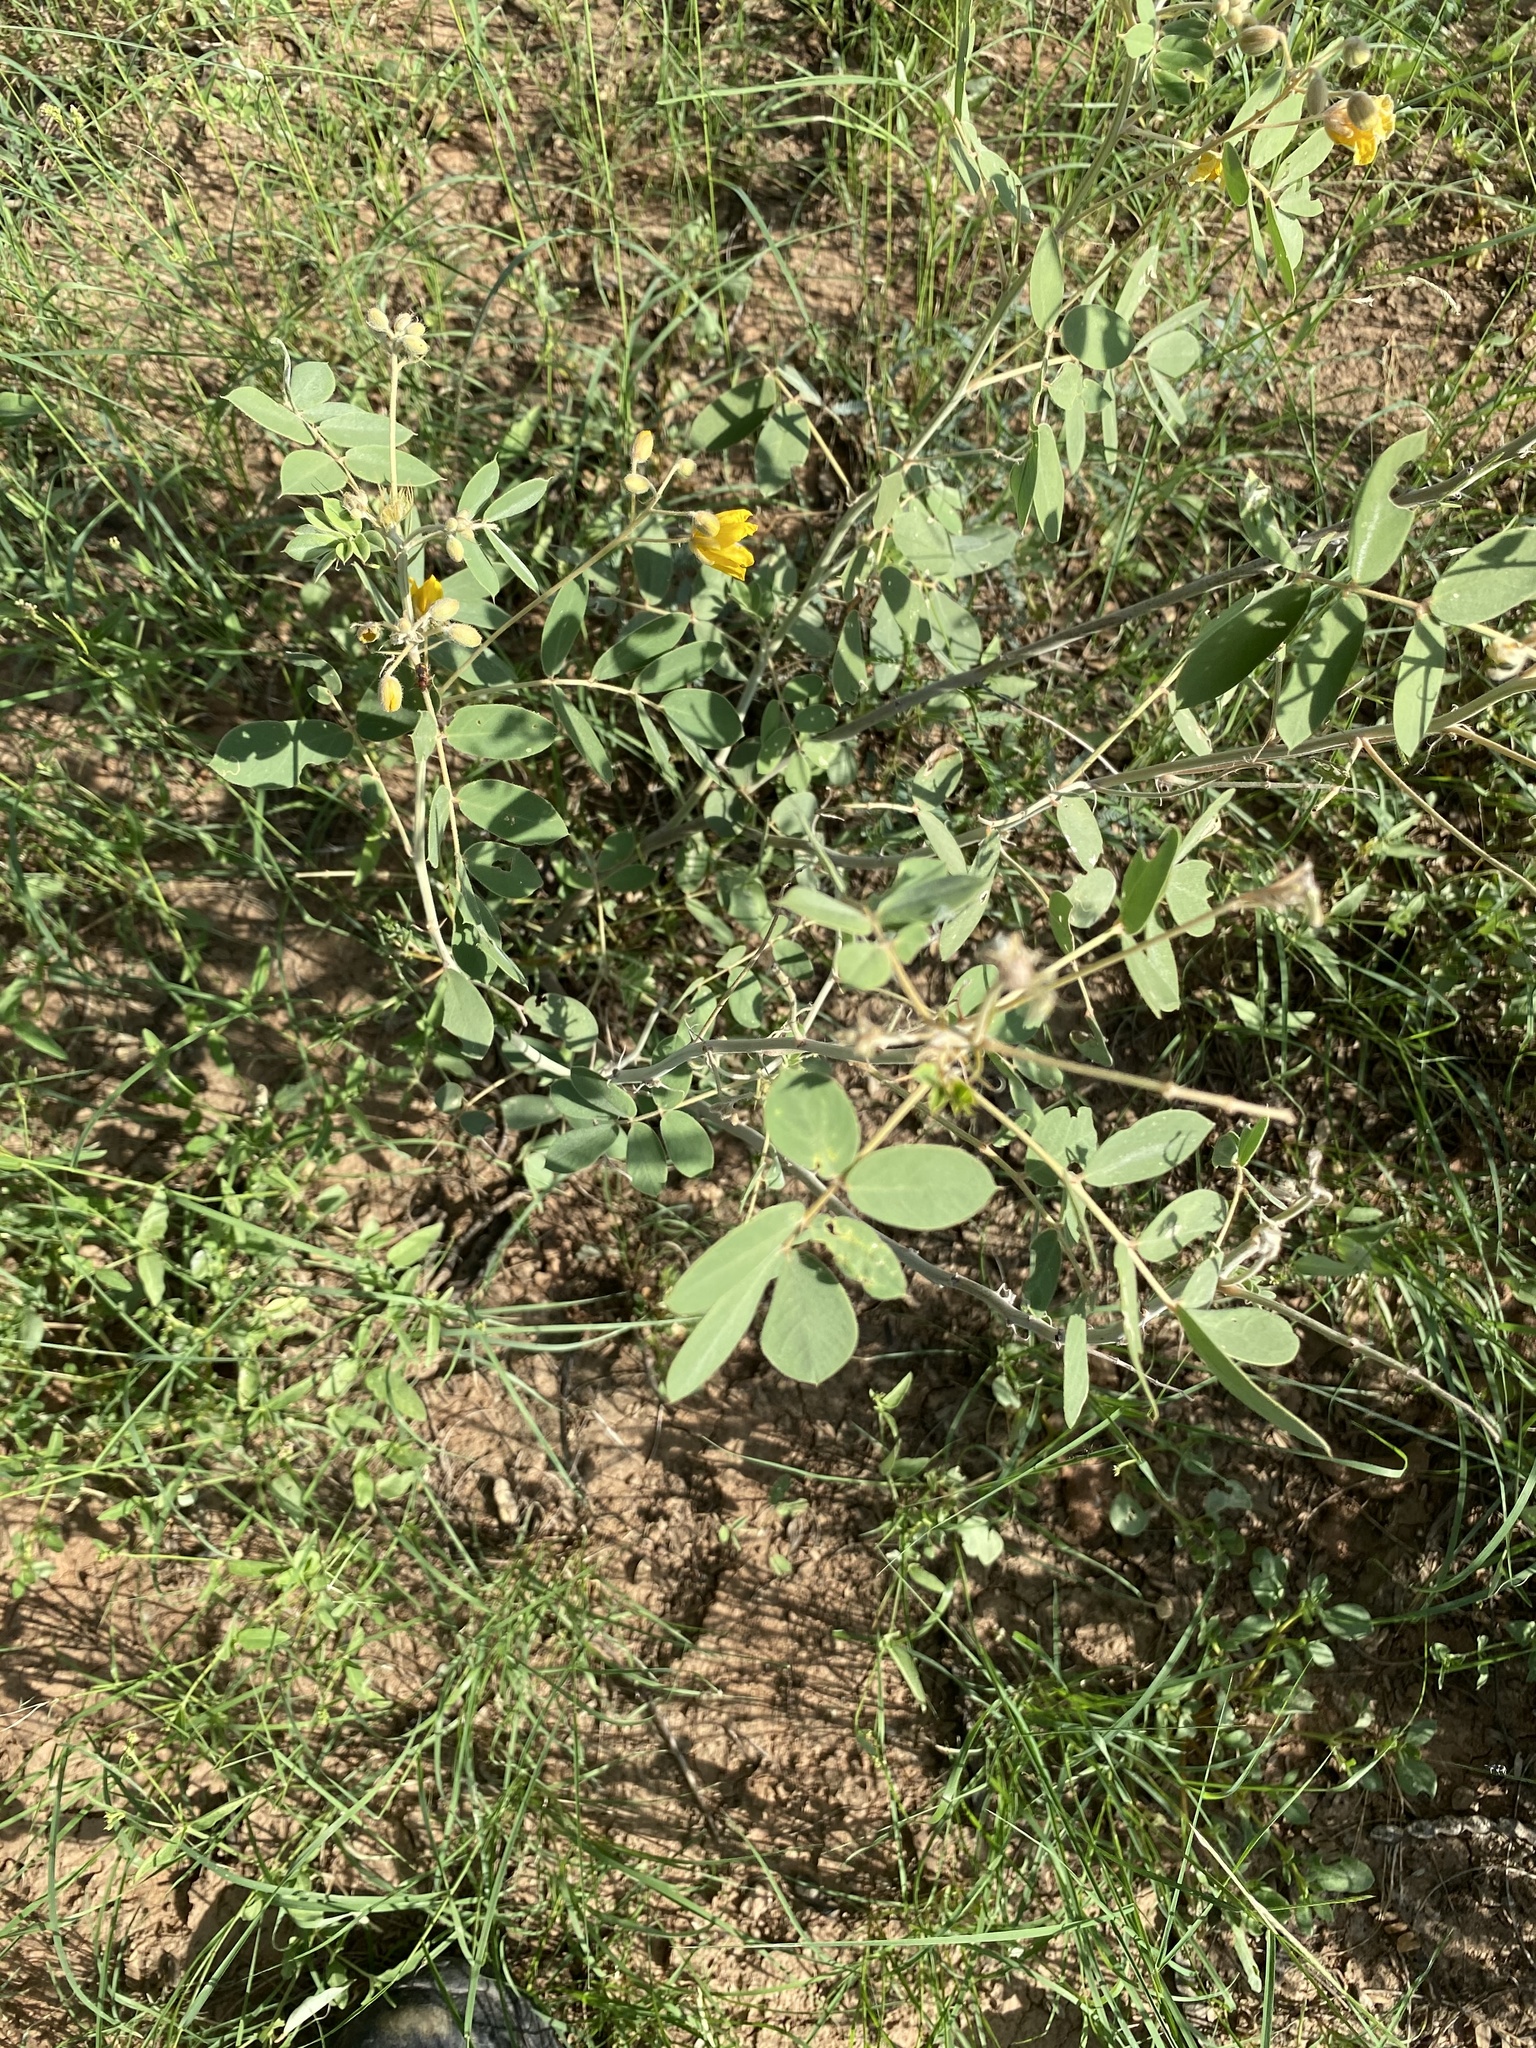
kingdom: Plantae
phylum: Tracheophyta
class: Magnoliopsida
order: Fabales
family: Fabaceae
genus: Senna
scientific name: Senna covesii
